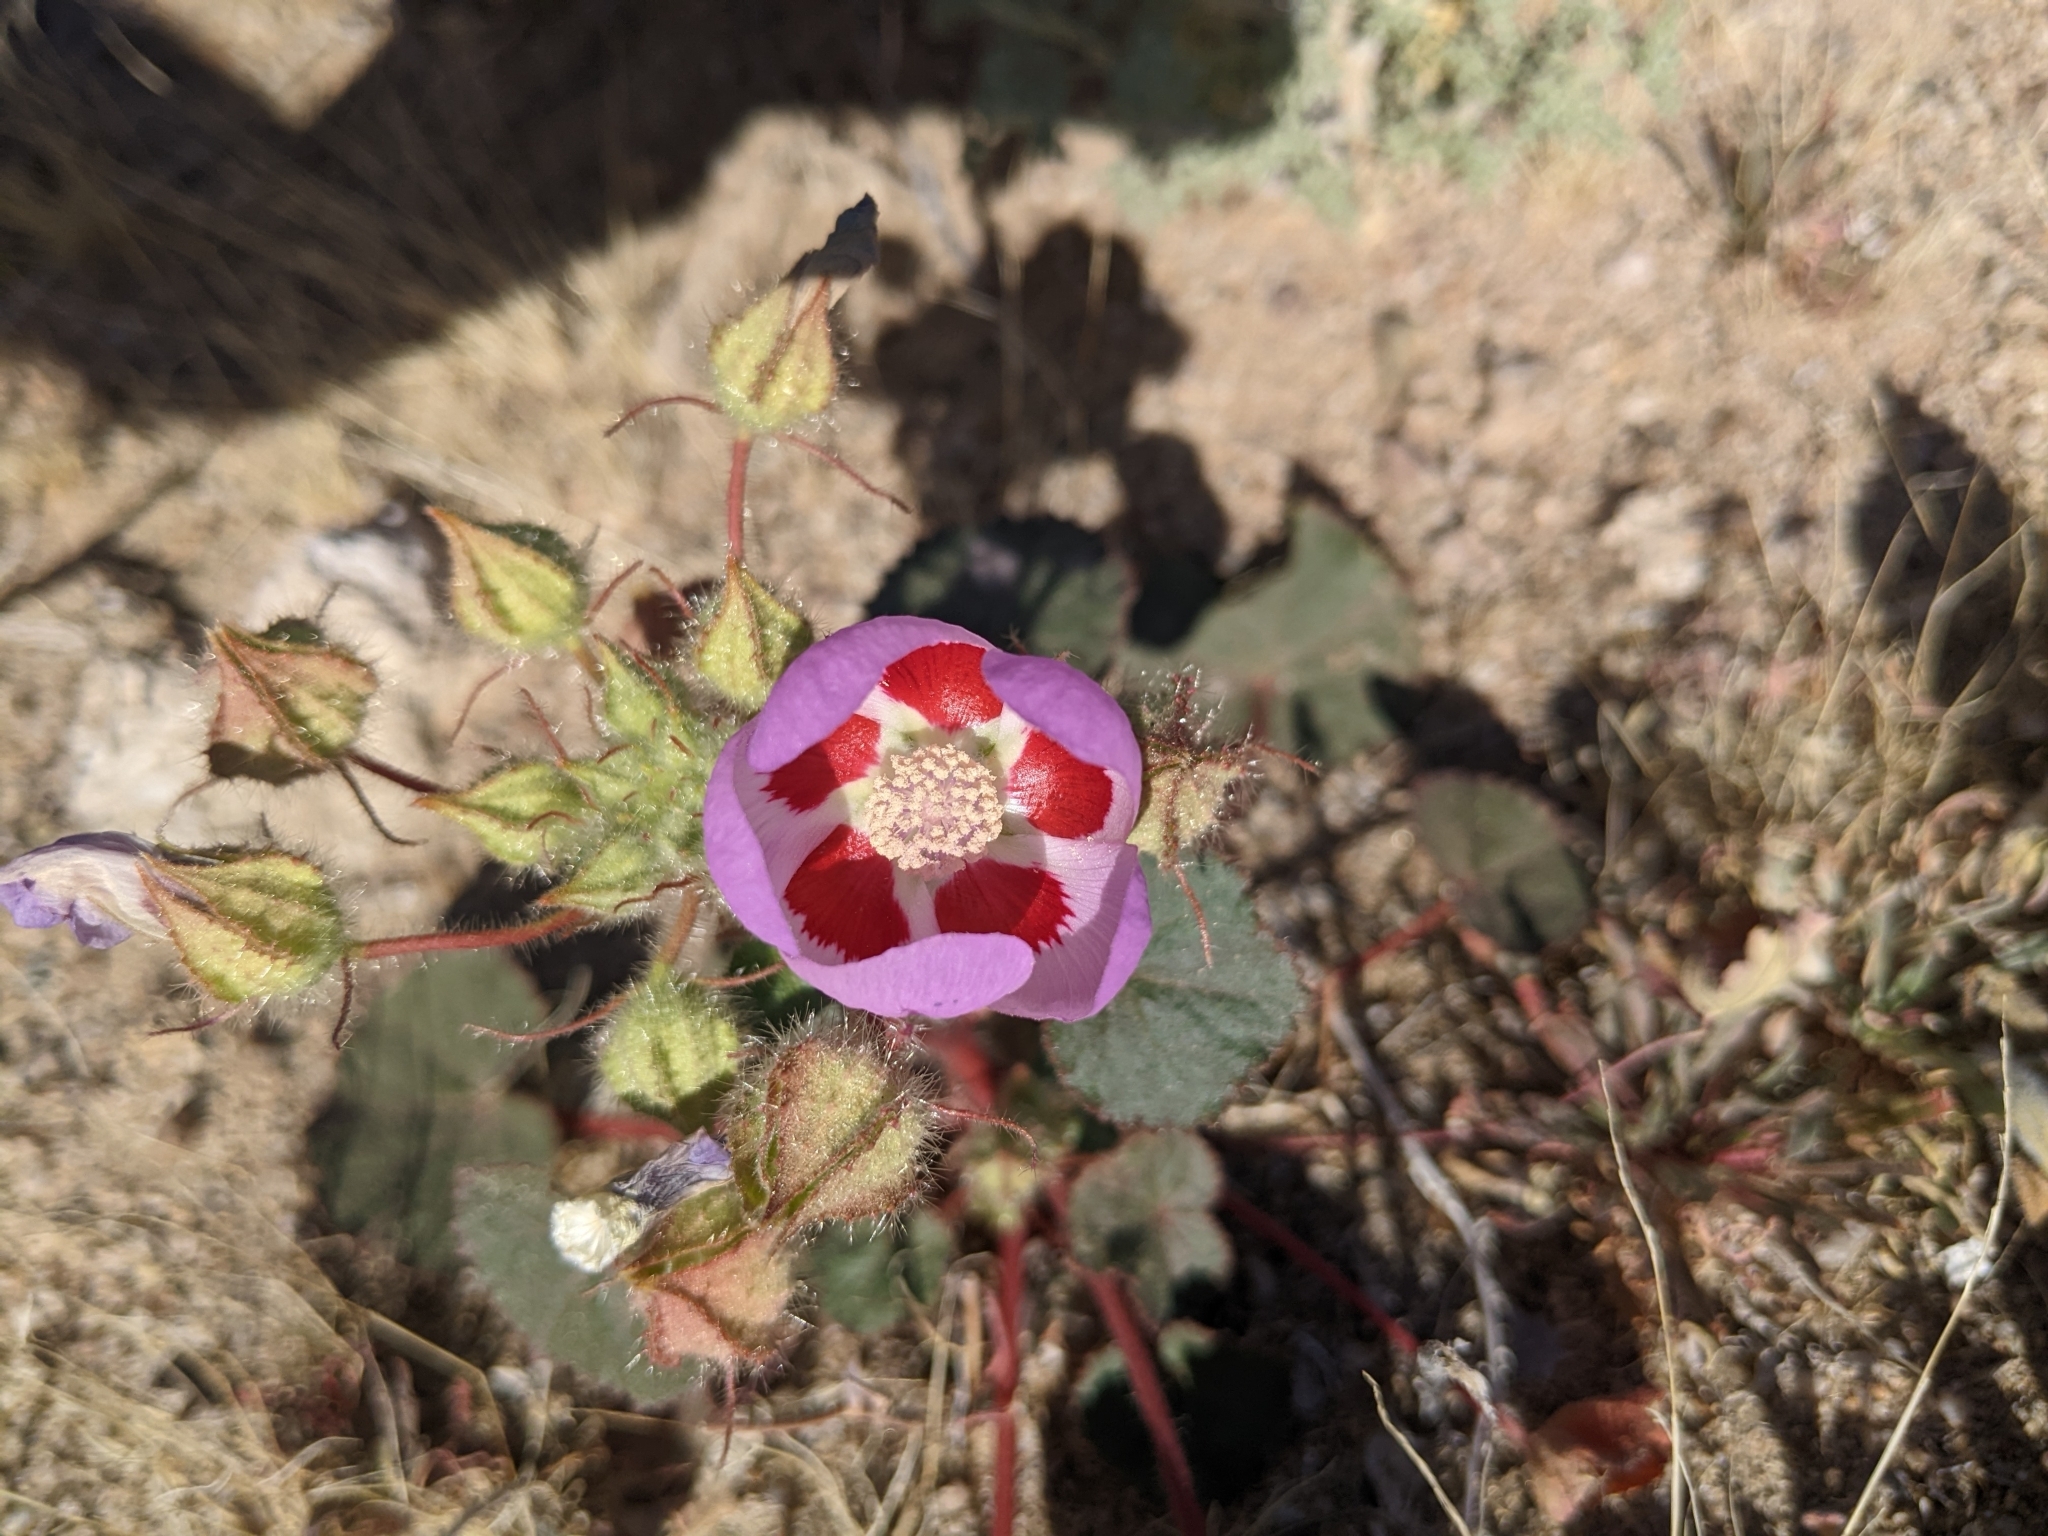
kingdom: Plantae
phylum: Tracheophyta
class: Magnoliopsida
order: Malvales
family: Malvaceae
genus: Eremalche
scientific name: Eremalche rotundifolia
